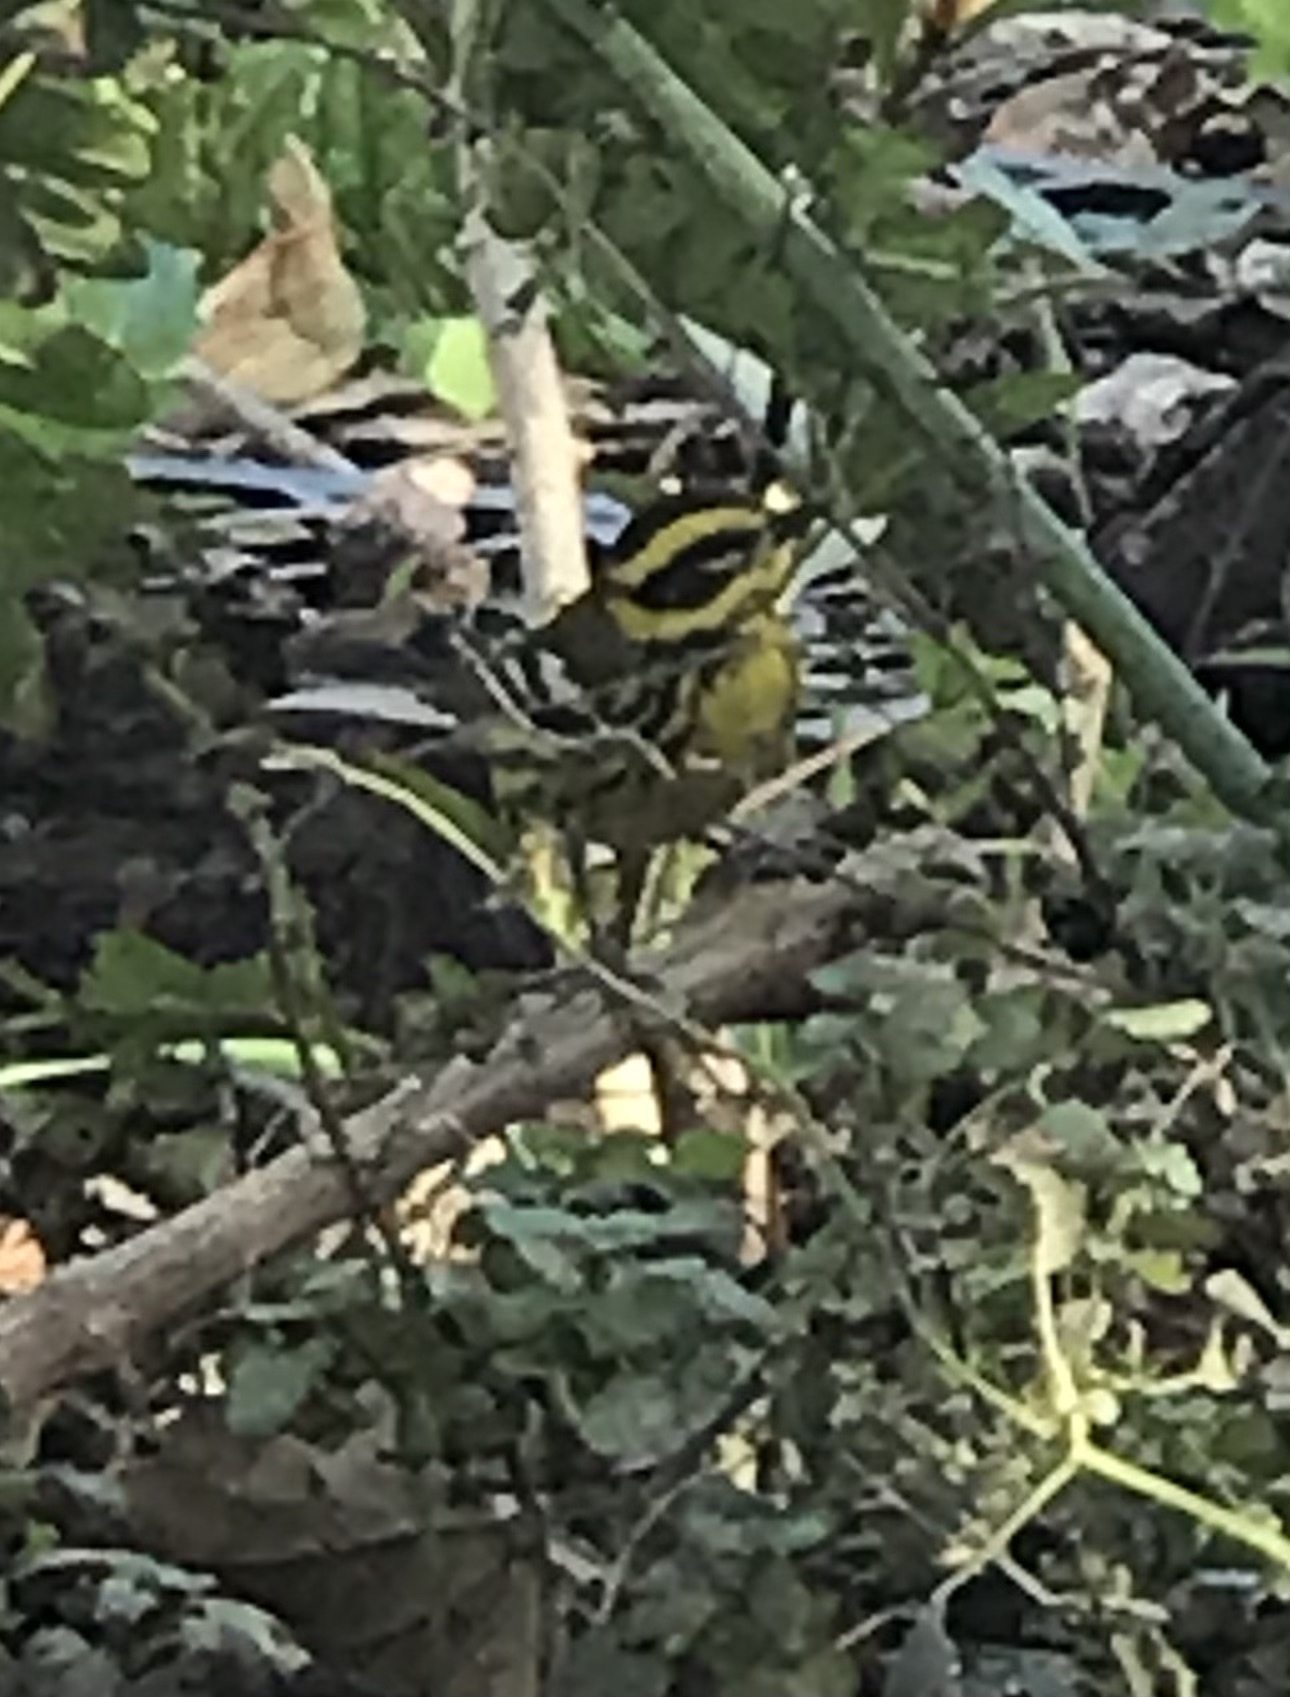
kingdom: Animalia
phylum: Chordata
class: Aves
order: Passeriformes
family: Parulidae
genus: Setophaga
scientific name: Setophaga townsendi
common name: Townsend's warbler
